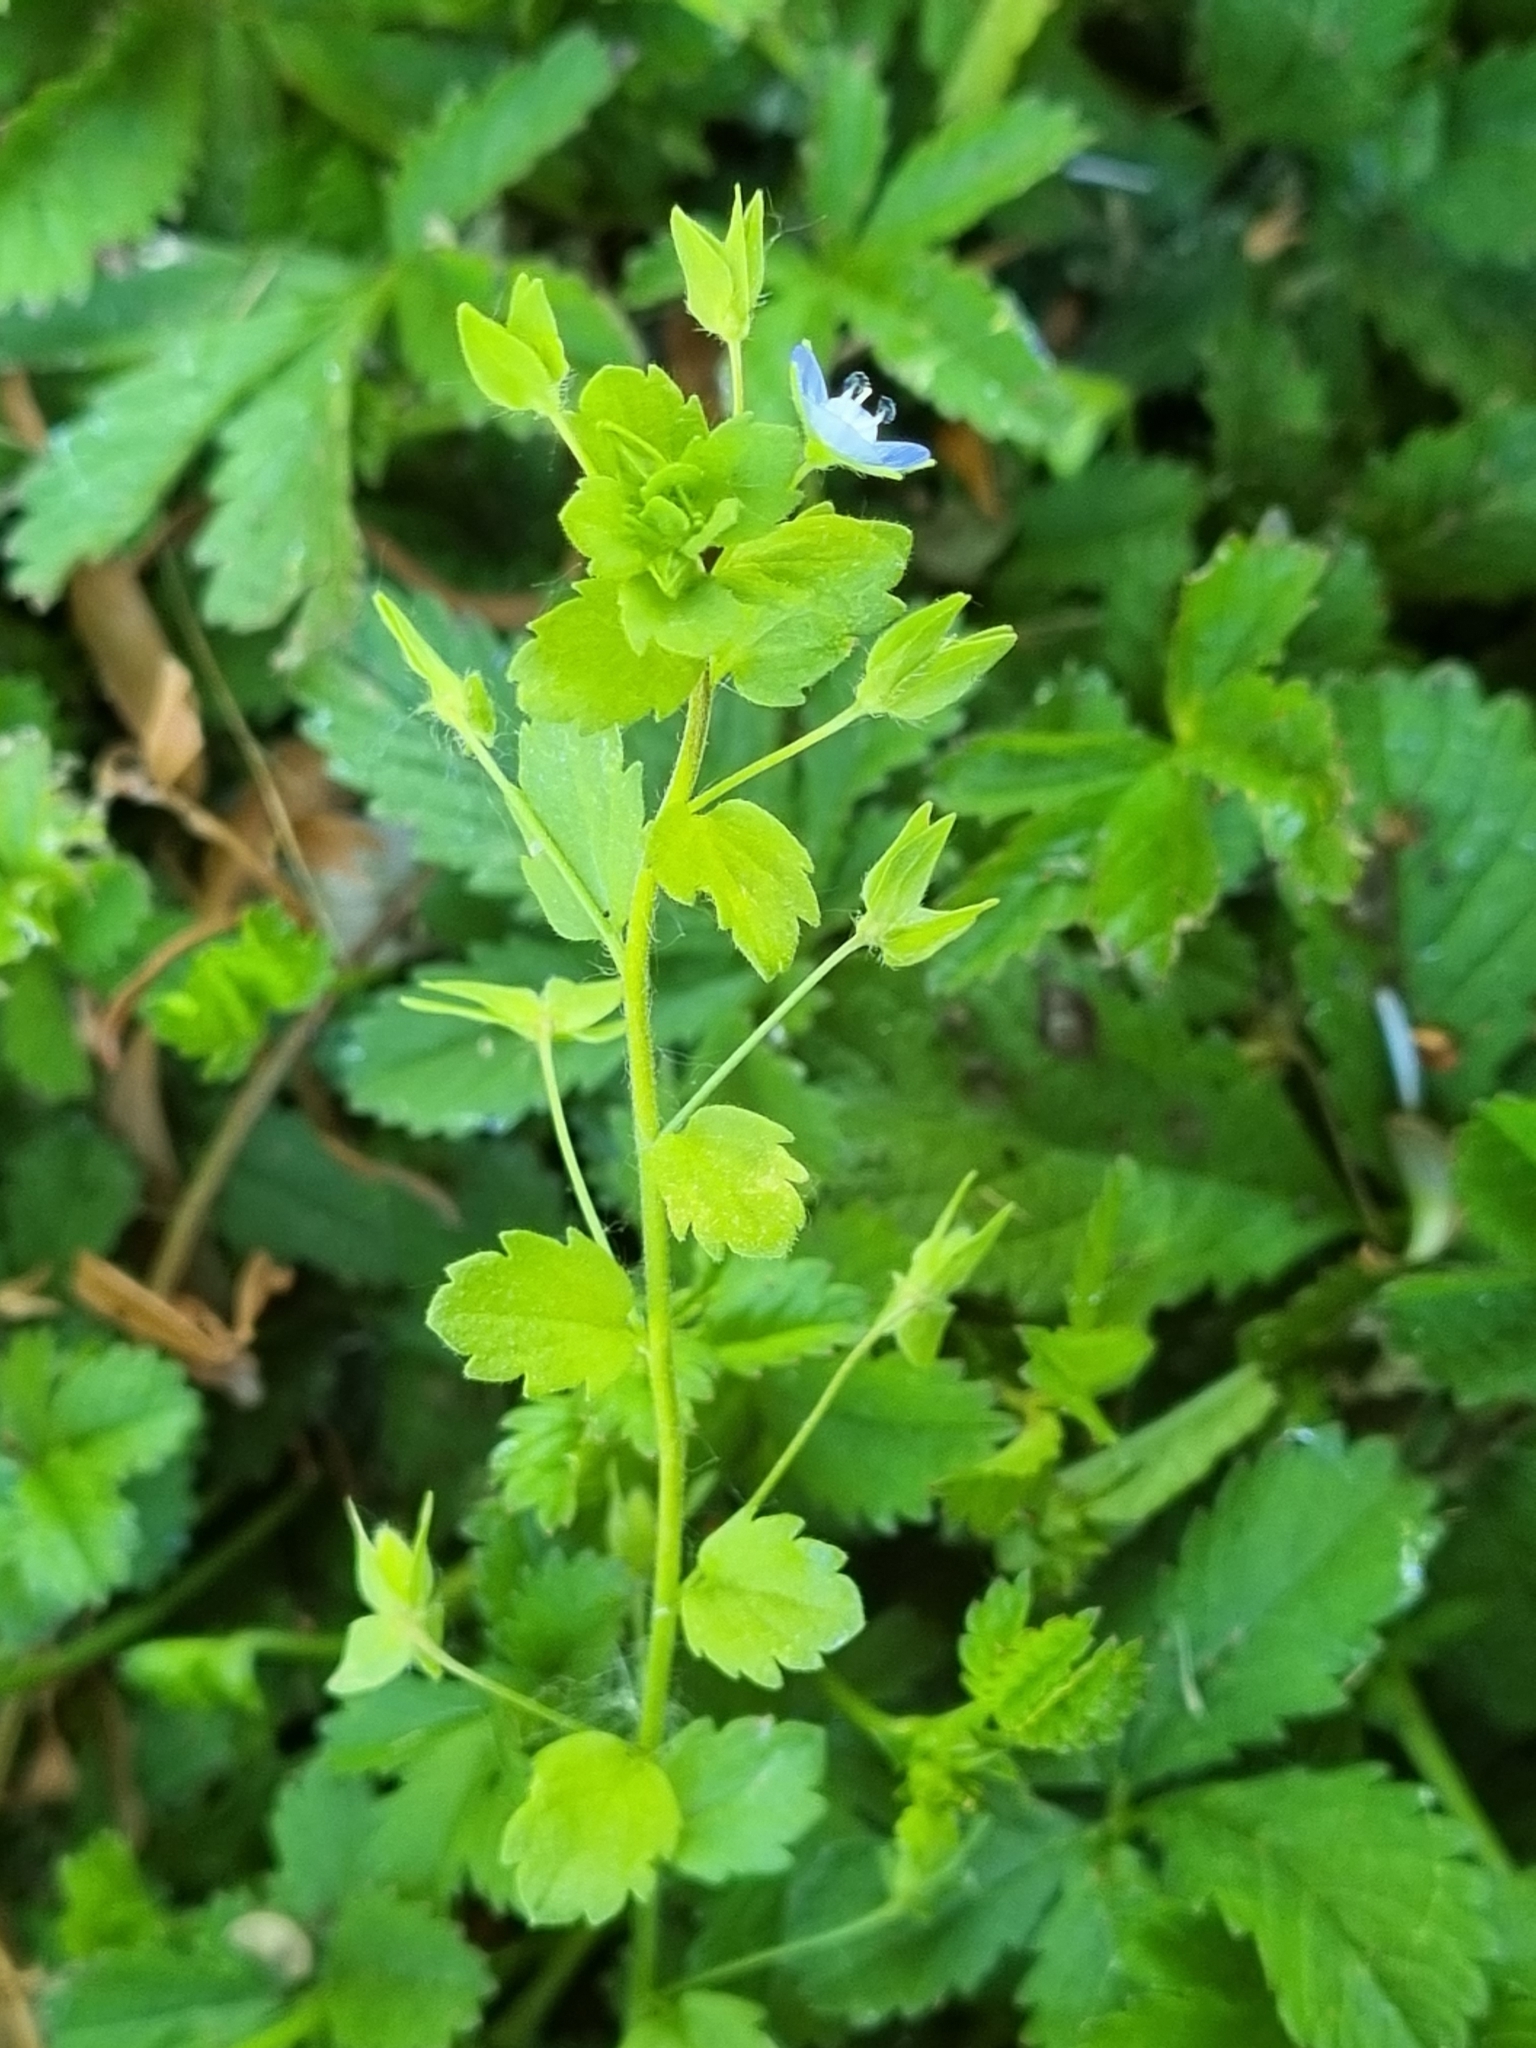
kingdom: Plantae
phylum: Tracheophyta
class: Magnoliopsida
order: Lamiales
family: Plantaginaceae
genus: Veronica
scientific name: Veronica persica
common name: Common field-speedwell
